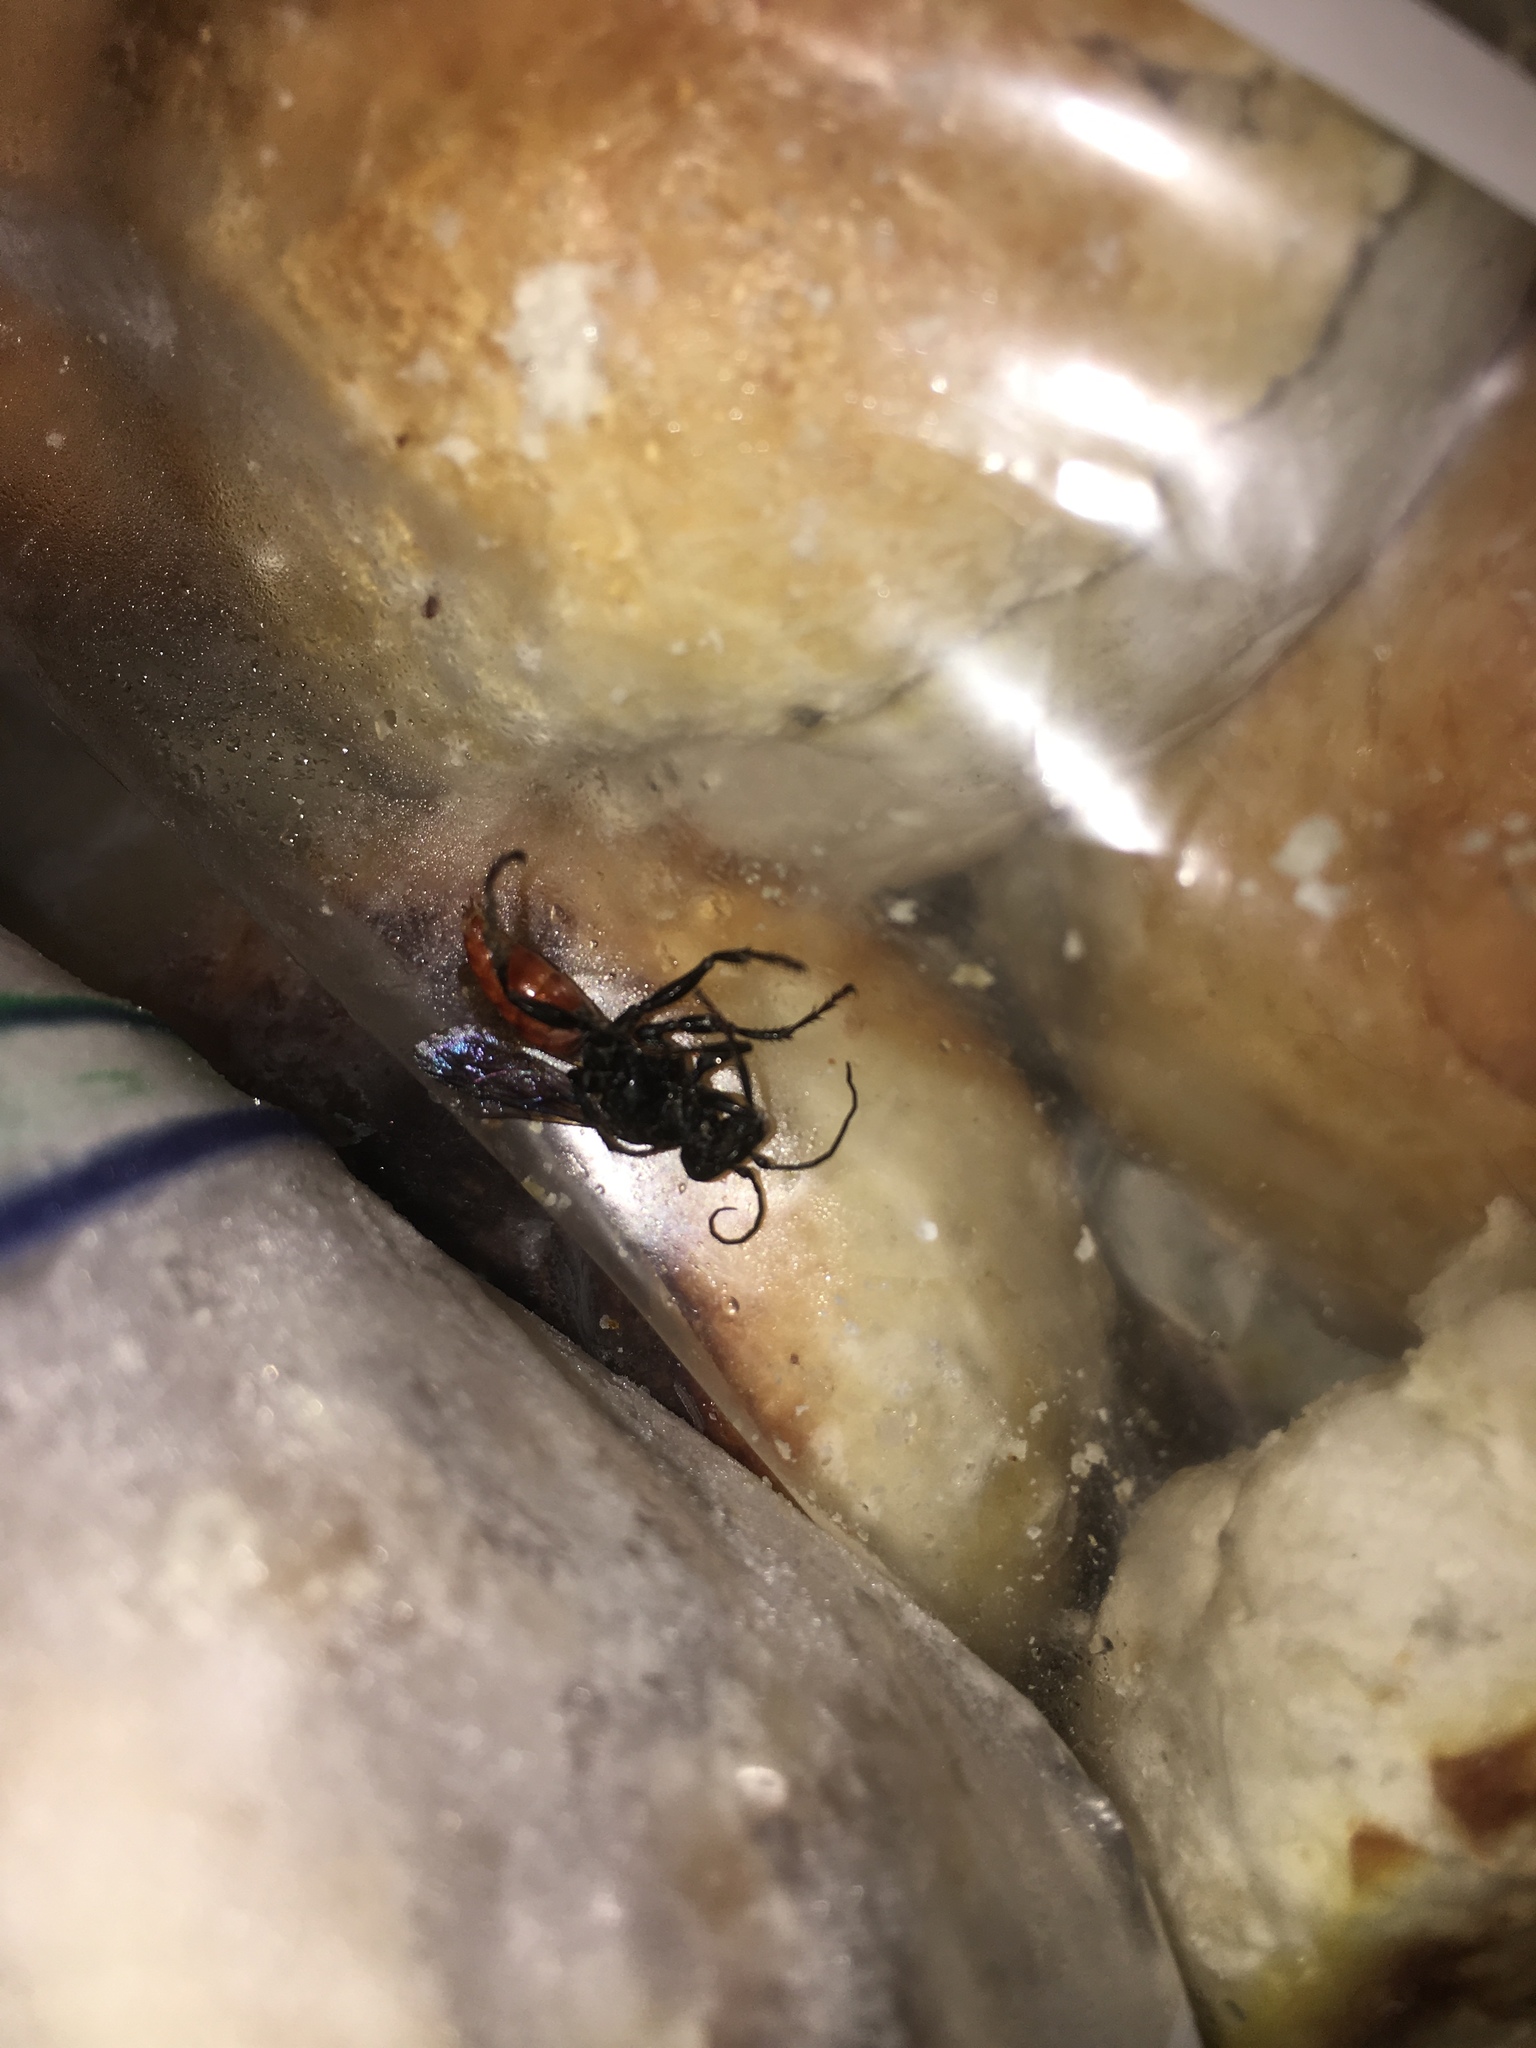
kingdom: Animalia
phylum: Arthropoda
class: Insecta
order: Hymenoptera
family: Pompilidae
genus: Priocnemis
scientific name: Priocnemis oregona
